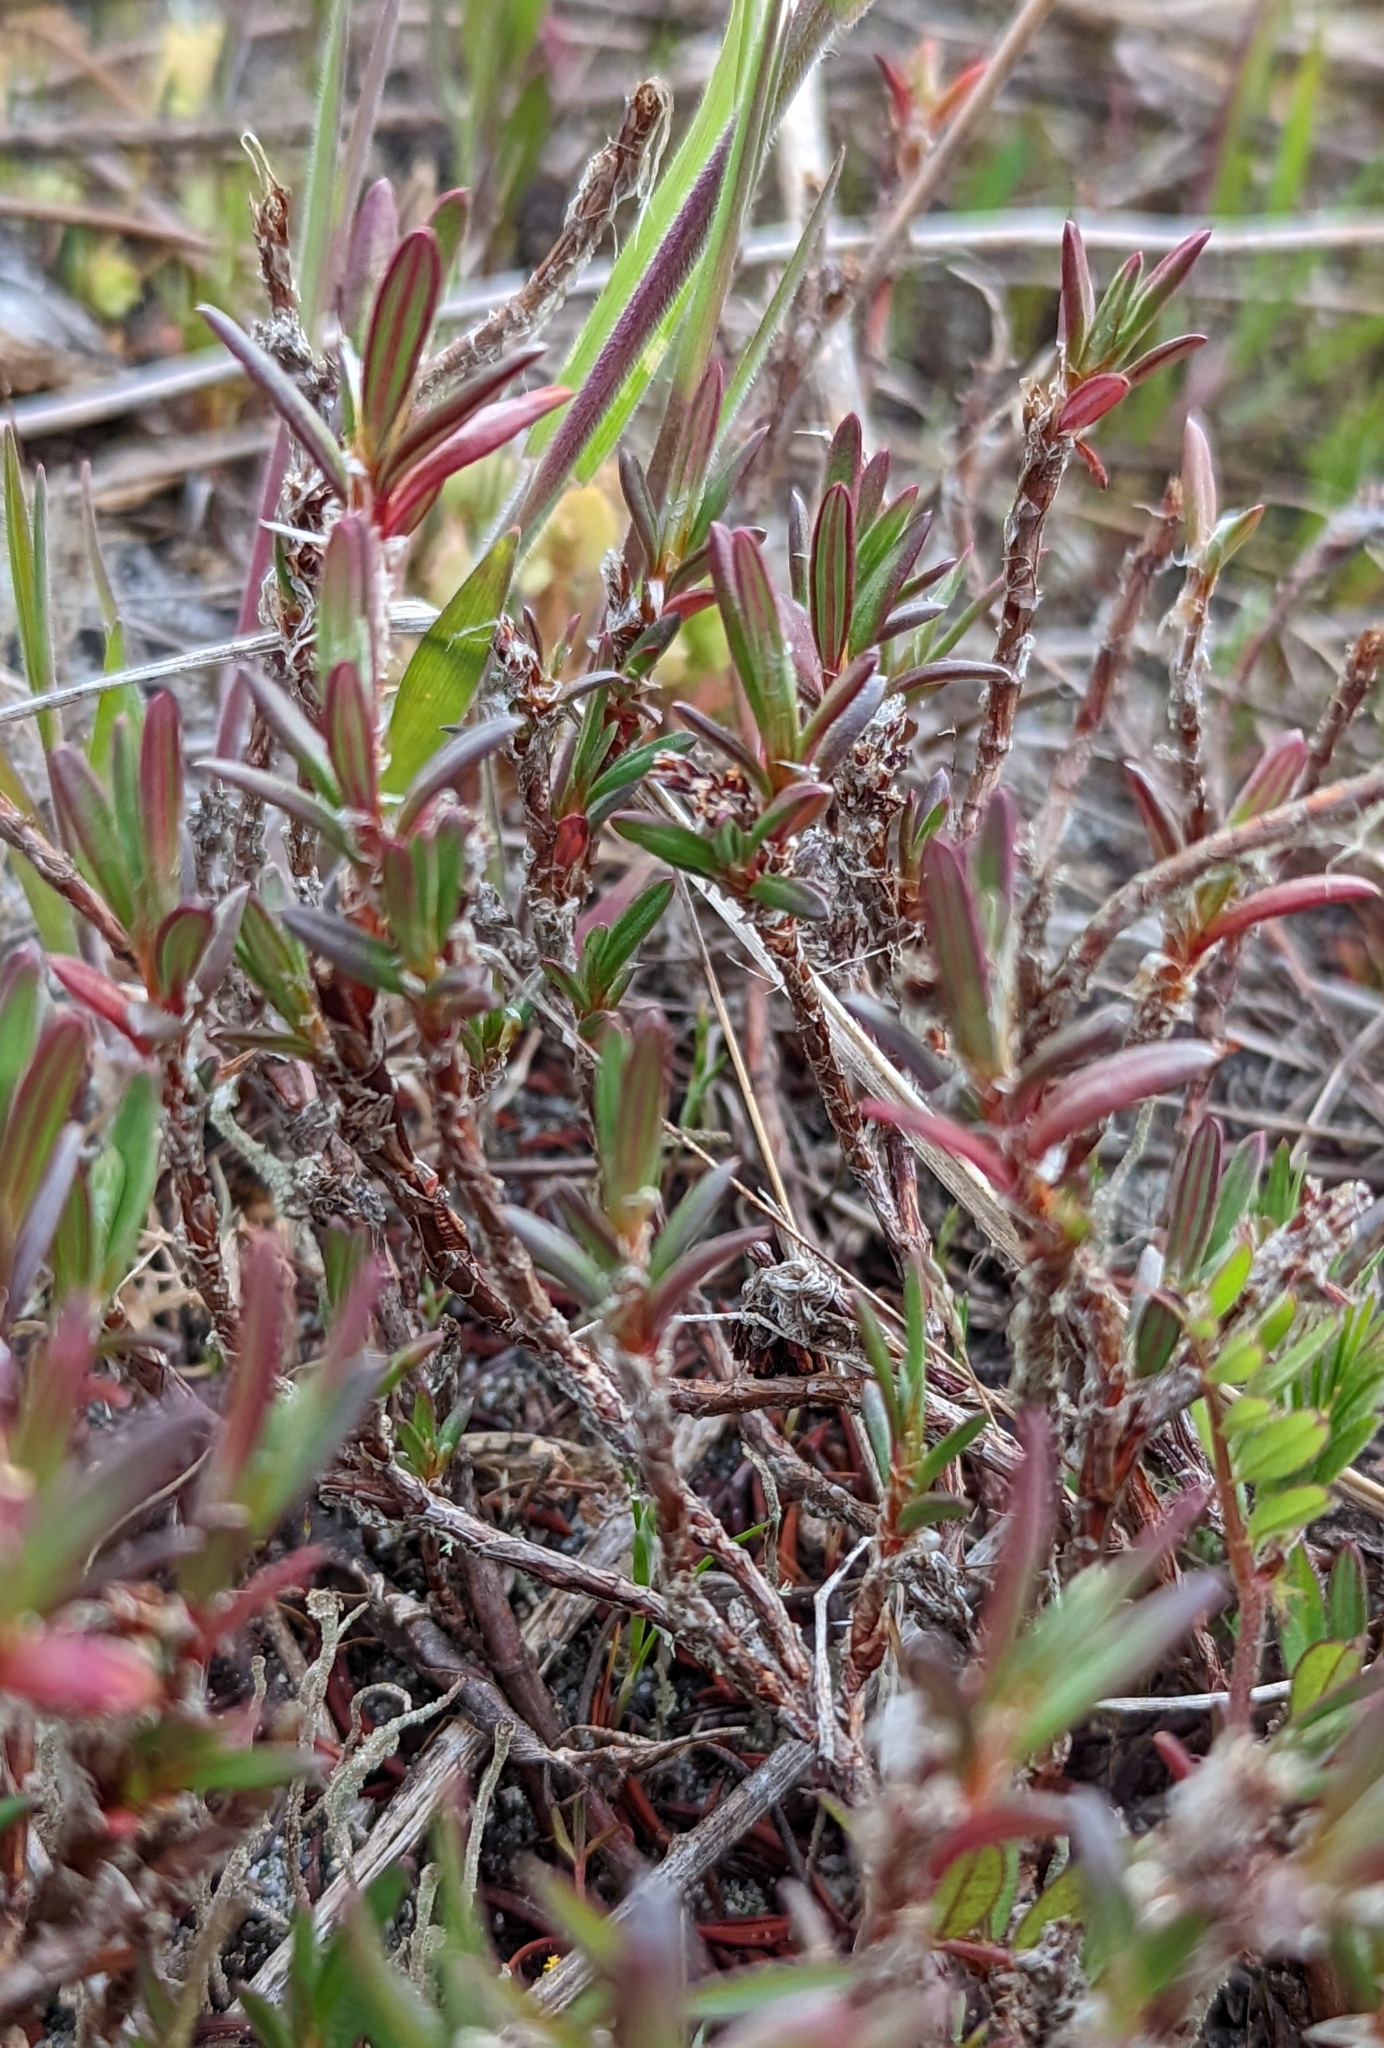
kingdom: Plantae
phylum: Tracheophyta
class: Magnoliopsida
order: Caryophyllales
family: Polygonaceae
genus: Polygonum
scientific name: Polygonum paronychia
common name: Dune knotweed
